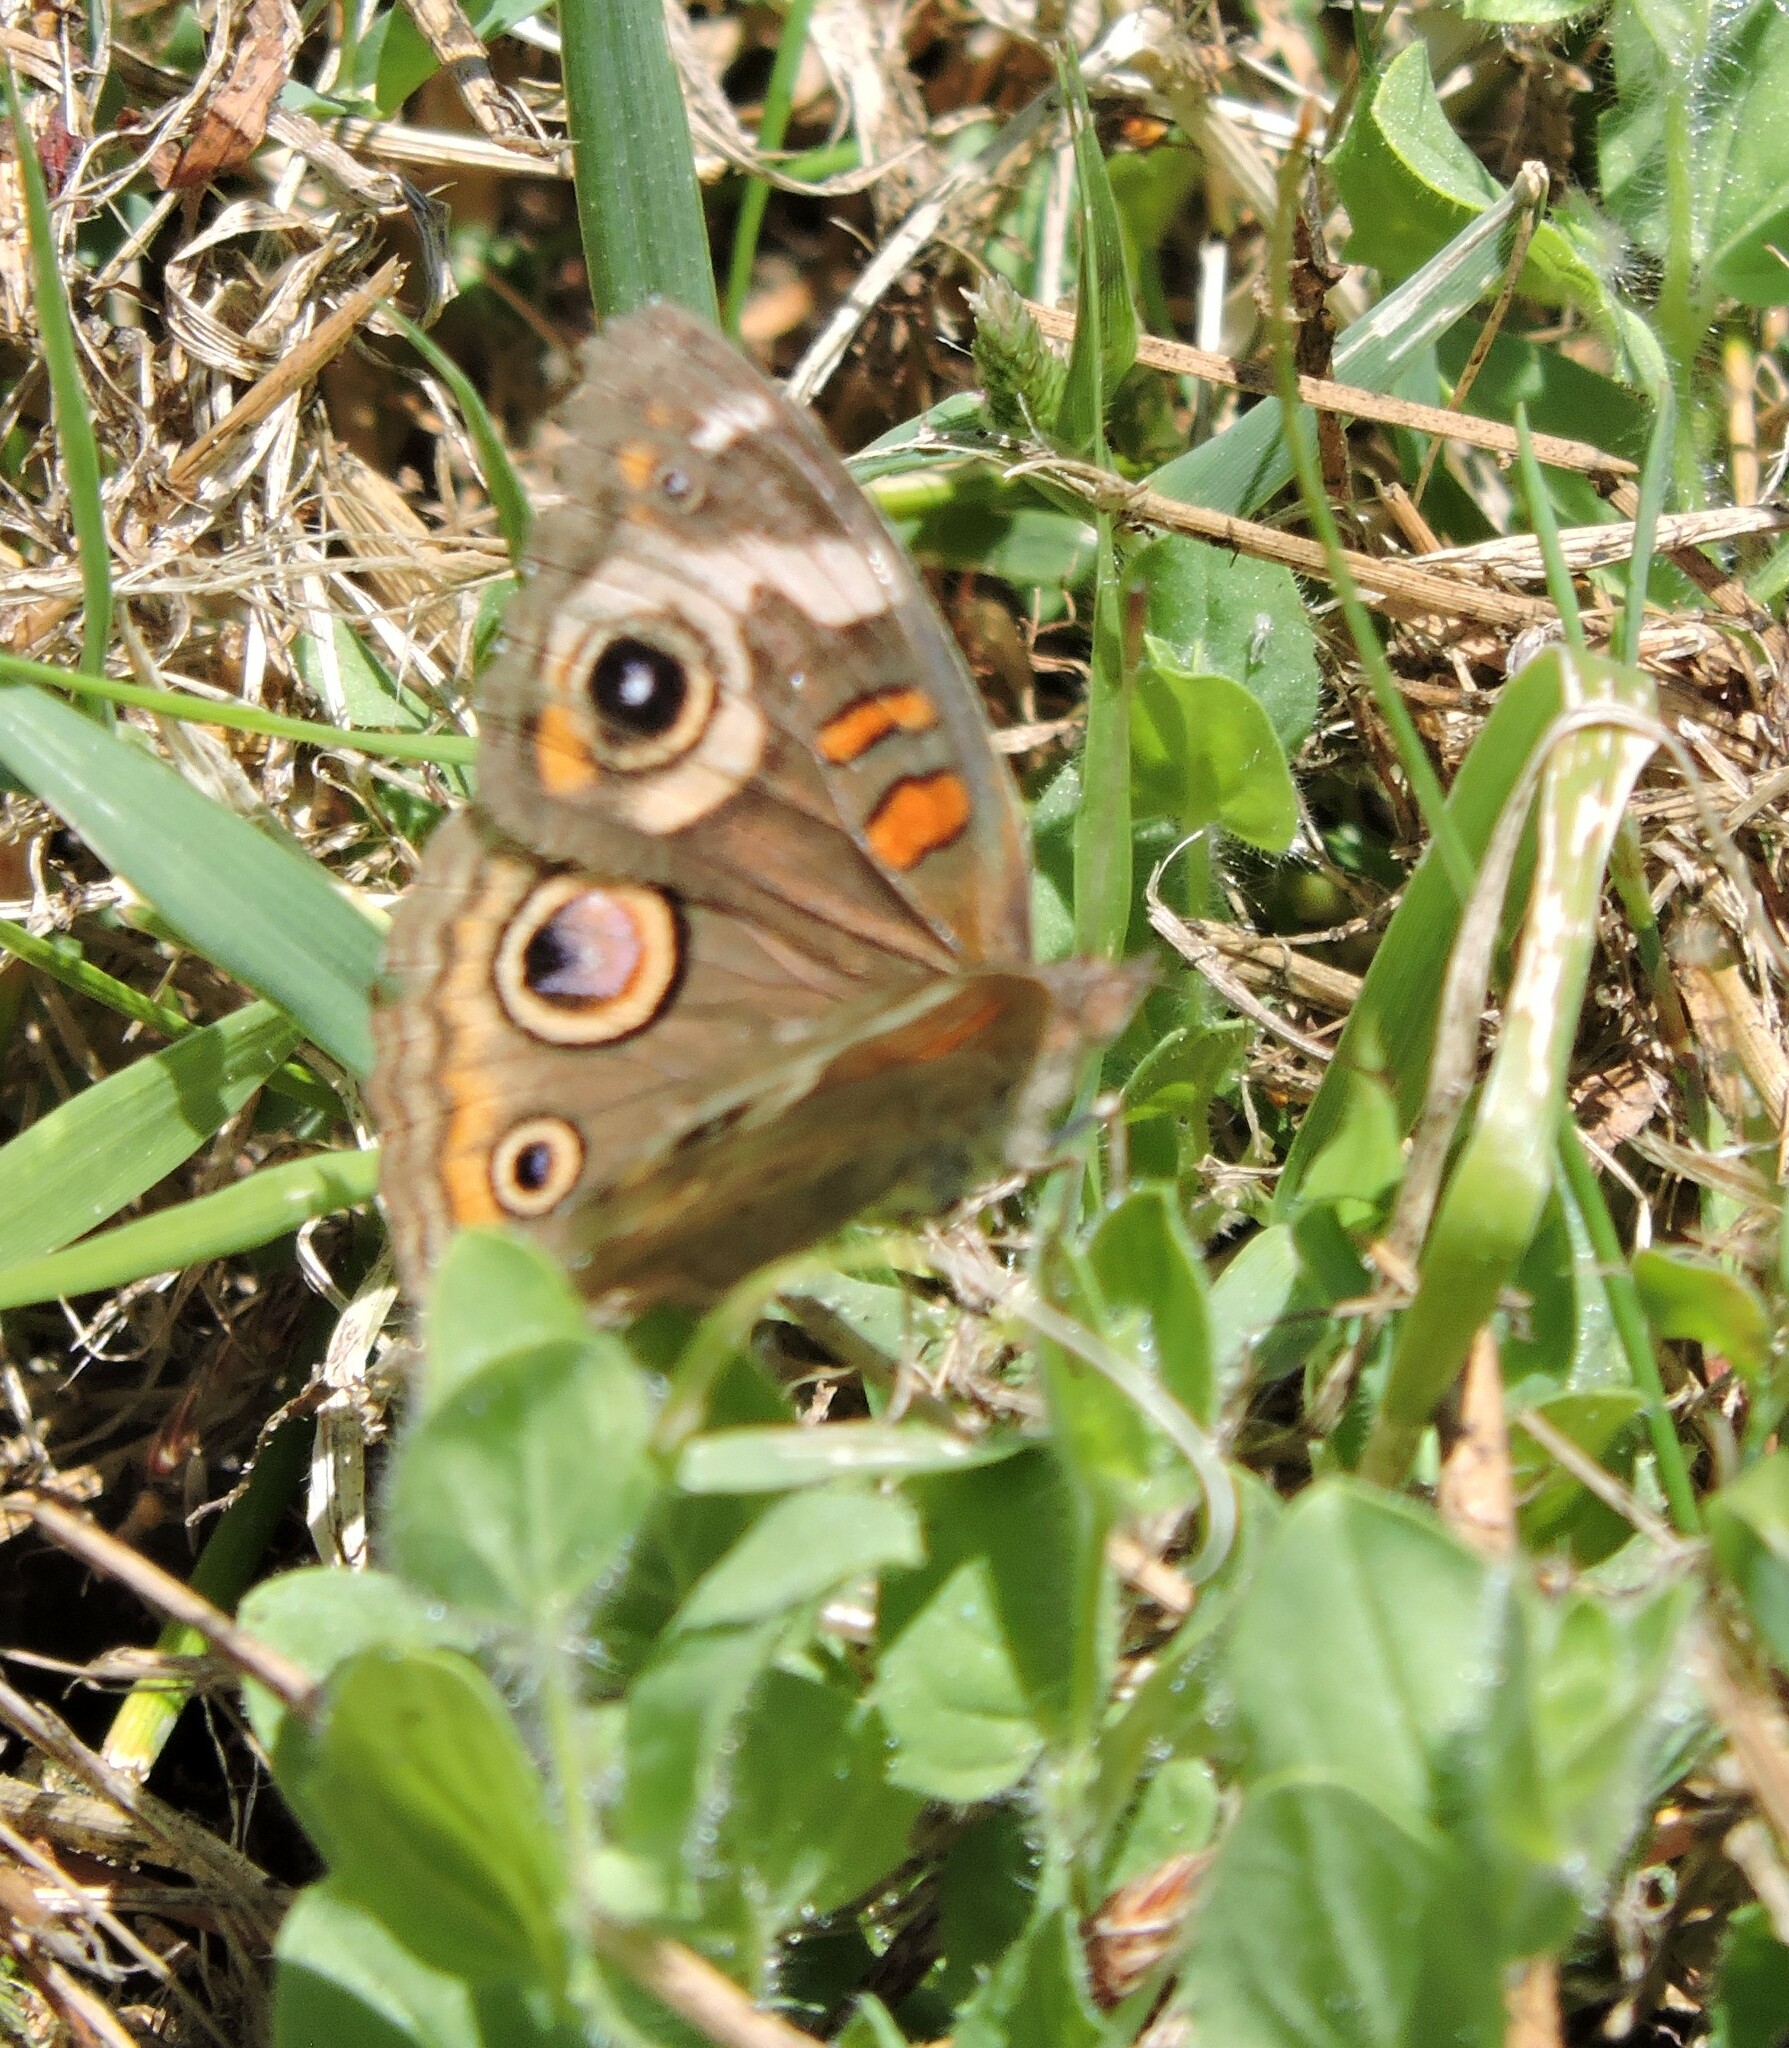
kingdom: Animalia
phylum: Arthropoda
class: Insecta
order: Lepidoptera
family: Nymphalidae
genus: Junonia
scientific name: Junonia grisea
